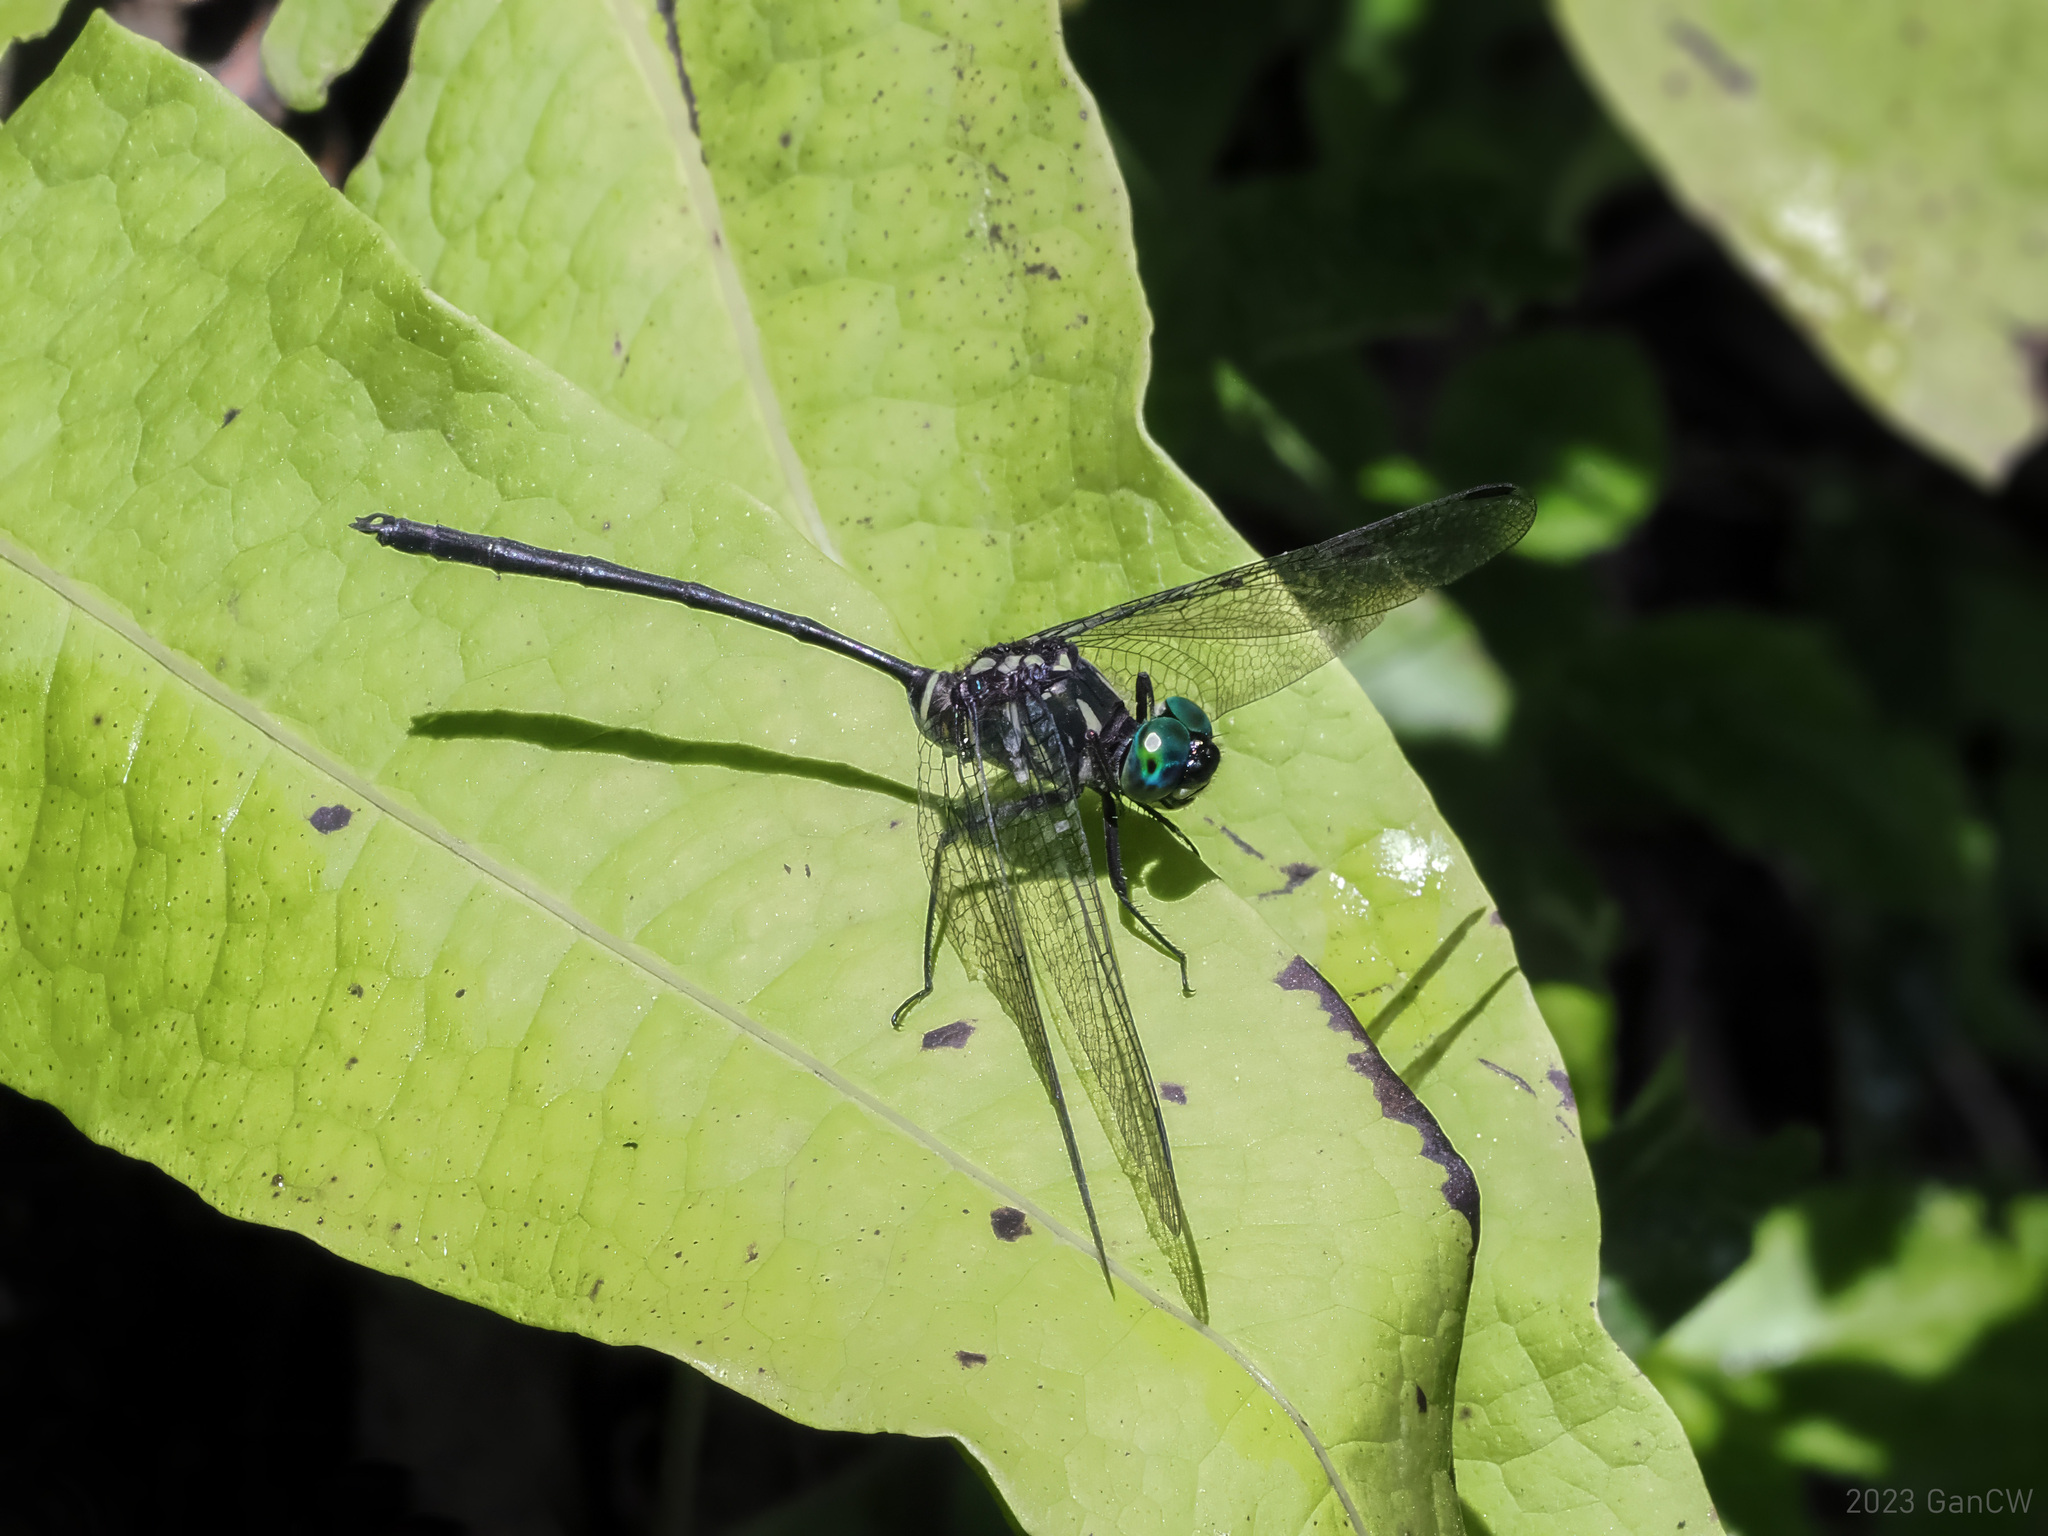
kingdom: Animalia
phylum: Arthropoda
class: Insecta
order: Odonata
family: Libellulidae
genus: Celebothemis
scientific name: Celebothemis delecollei
